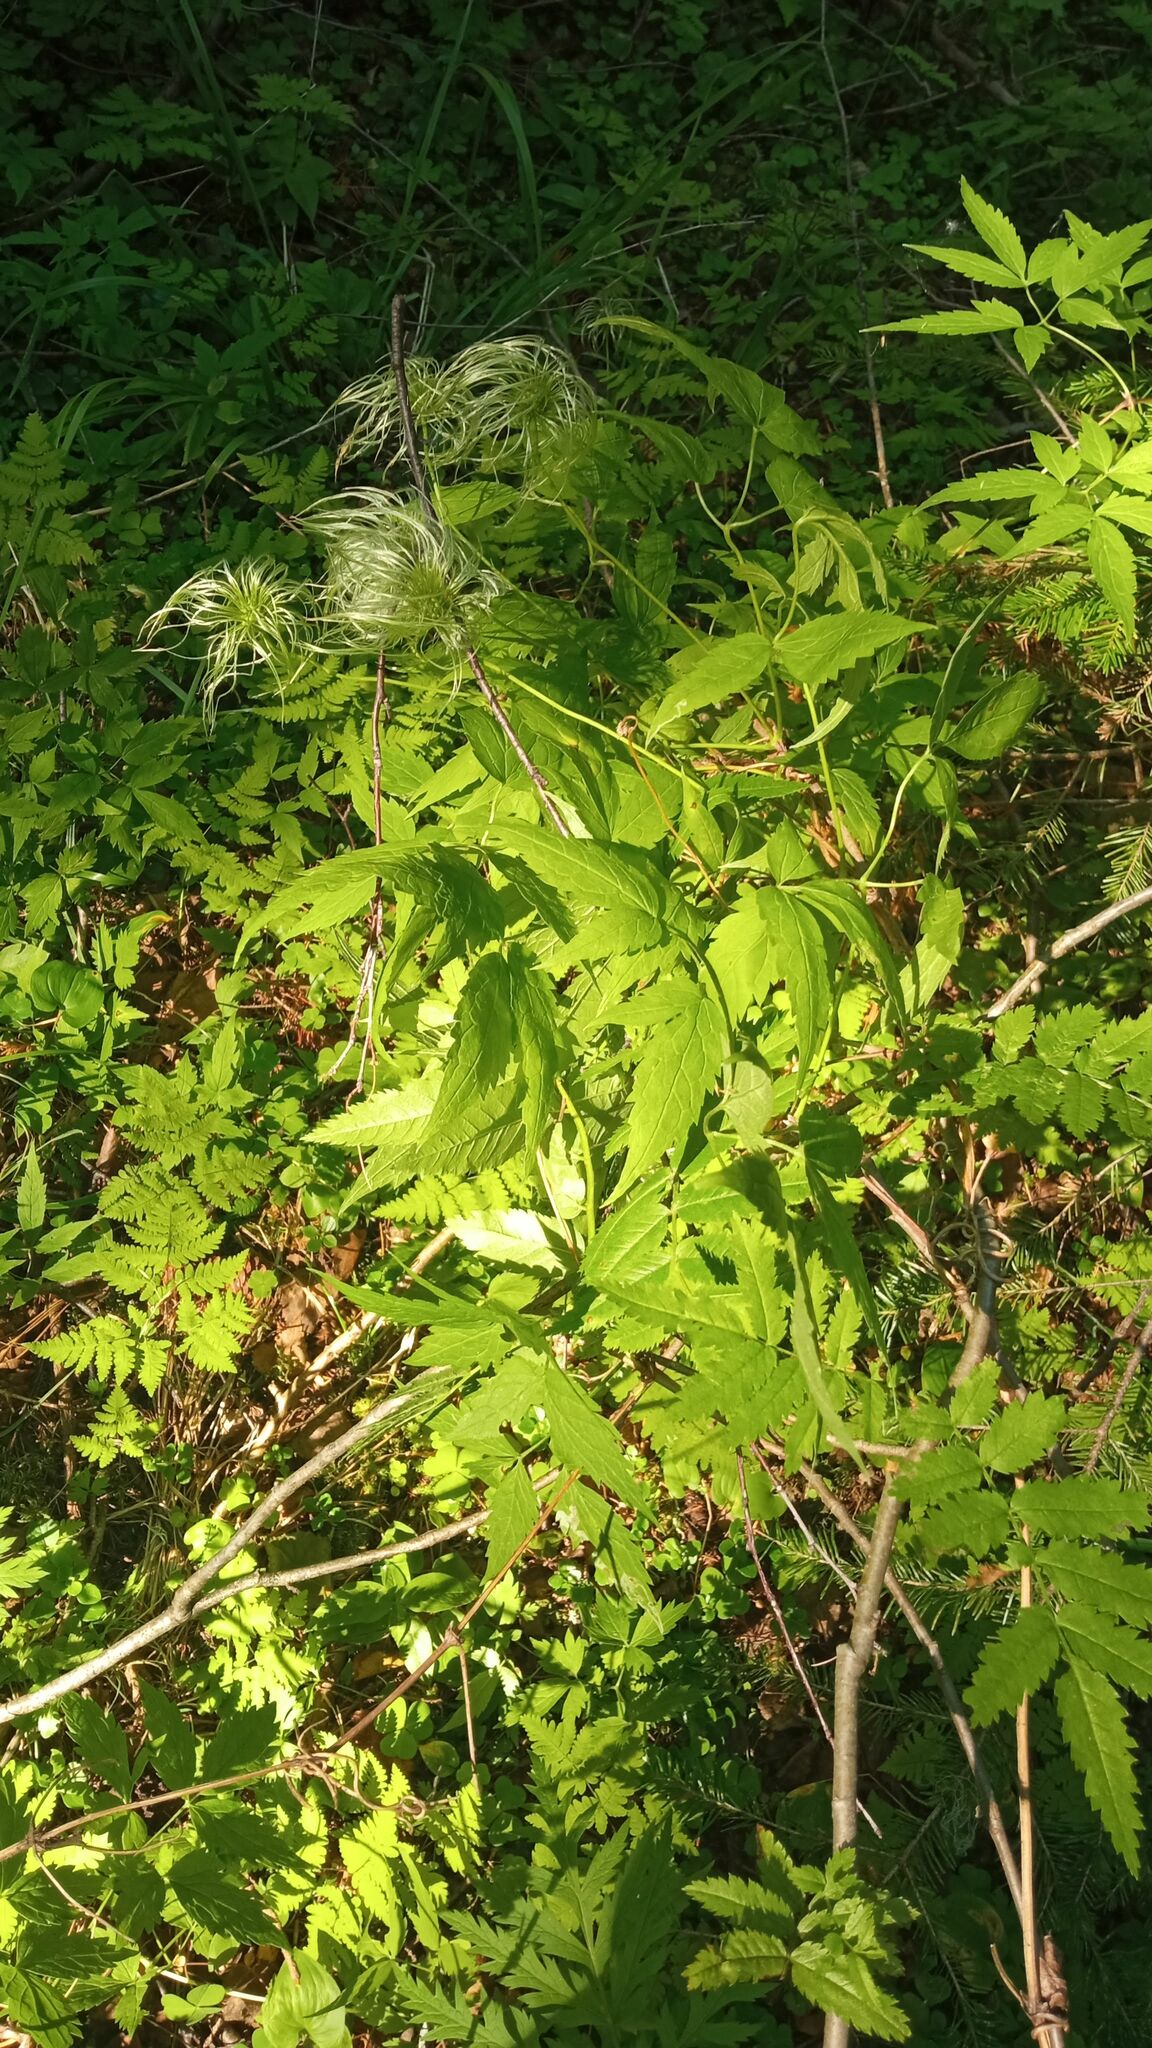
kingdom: Plantae
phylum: Tracheophyta
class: Magnoliopsida
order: Ranunculales
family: Ranunculaceae
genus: Clematis
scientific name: Clematis sibirica
